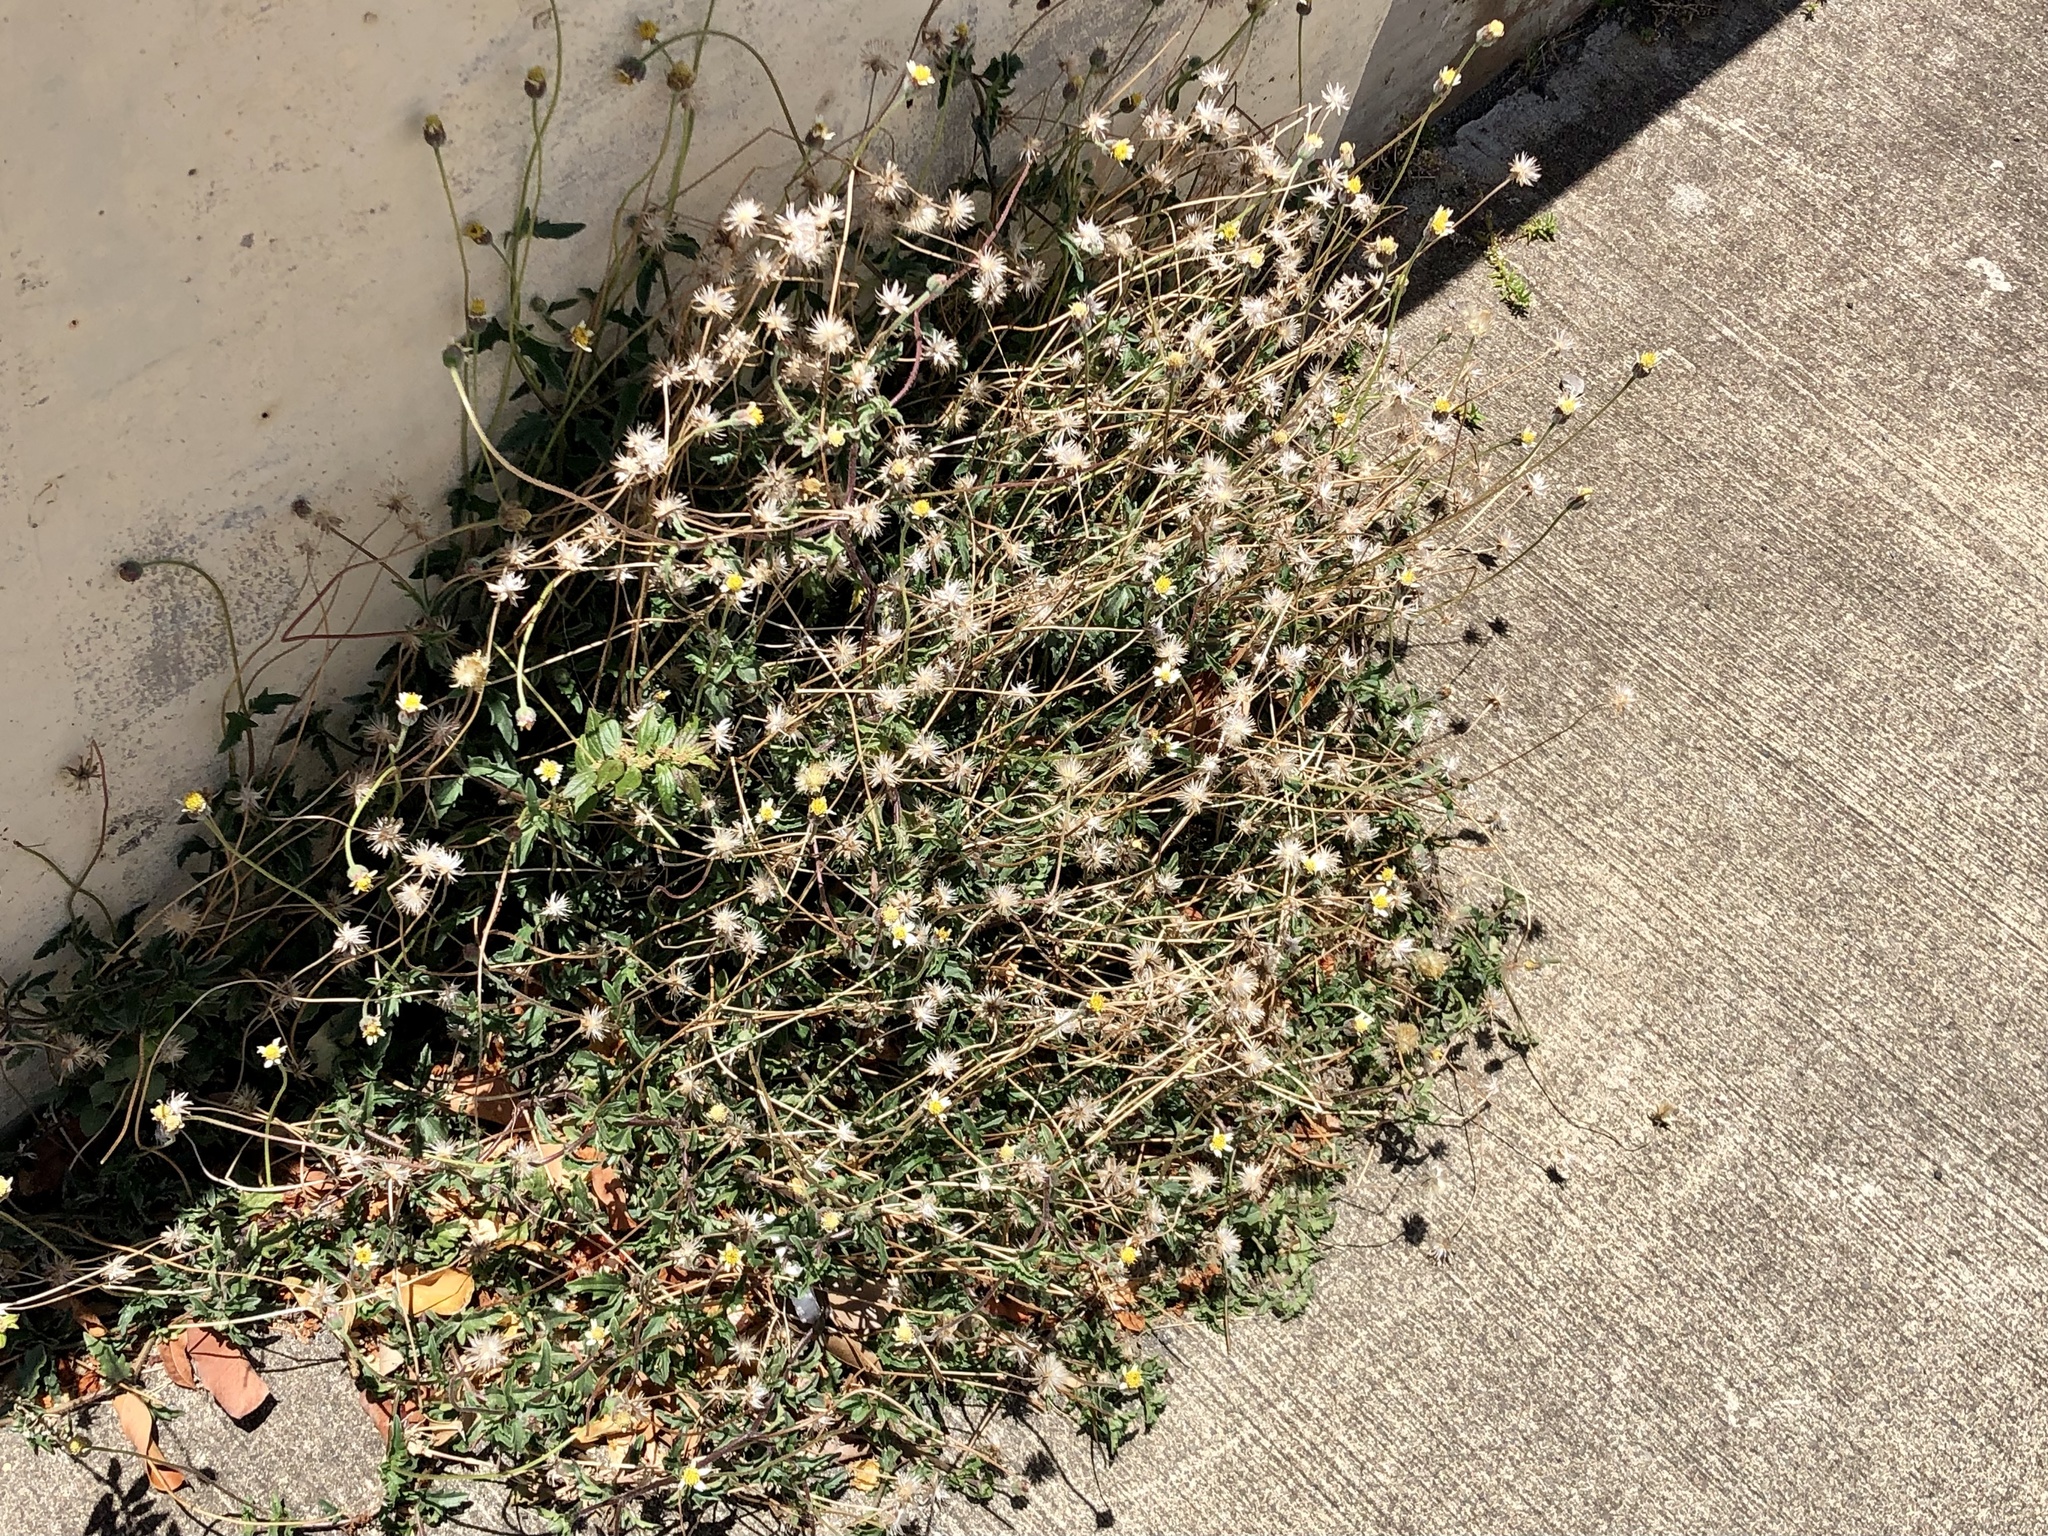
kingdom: Plantae
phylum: Tracheophyta
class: Magnoliopsida
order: Asterales
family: Asteraceae
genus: Tridax
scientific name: Tridax procumbens
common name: Coatbuttons
